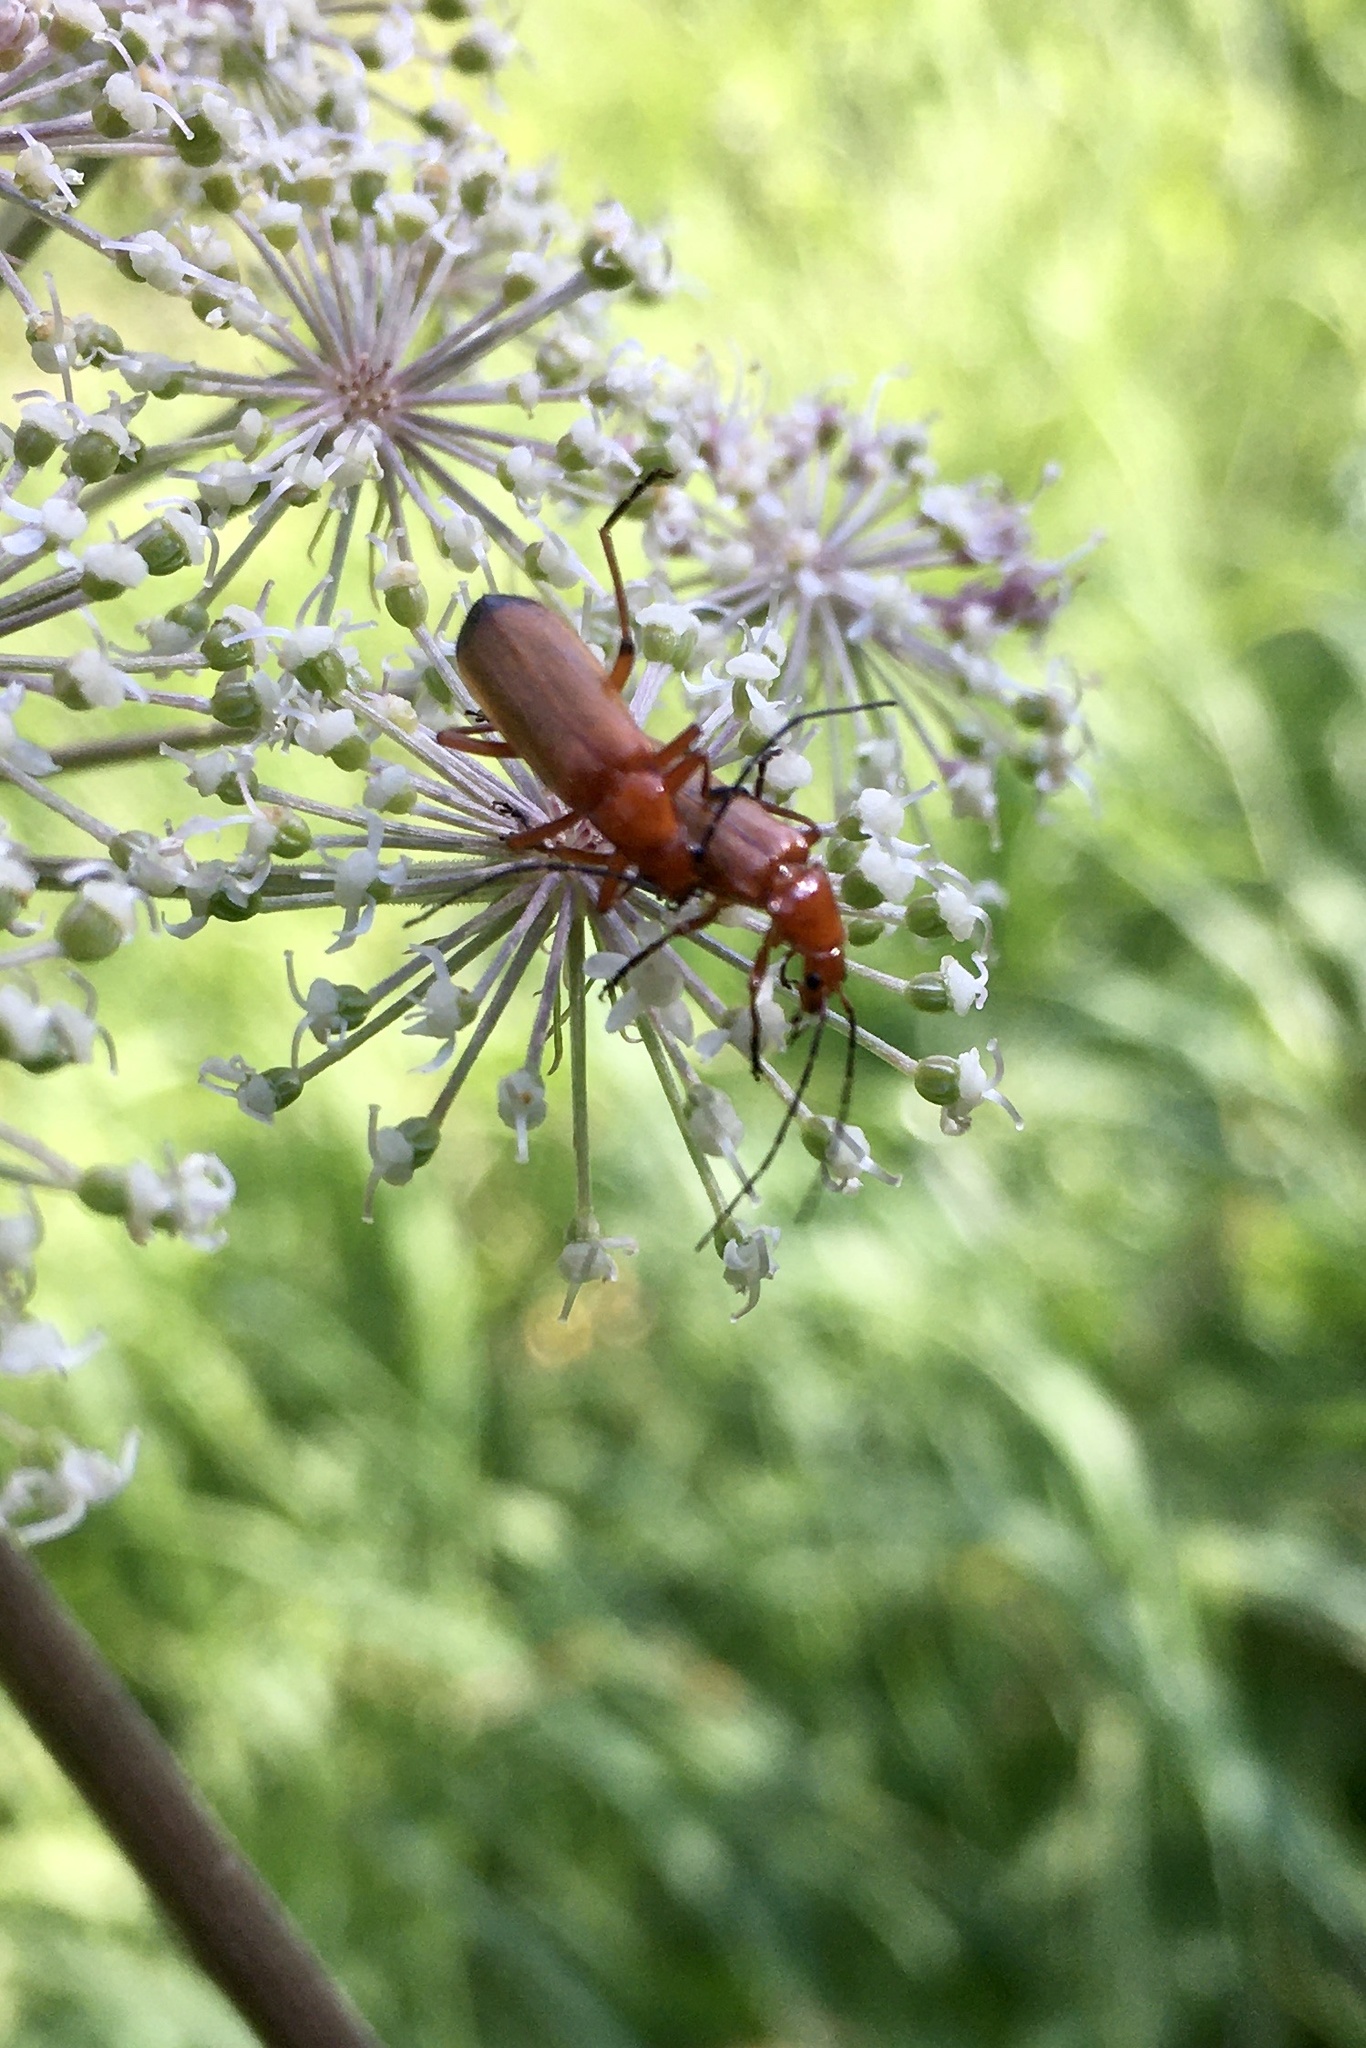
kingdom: Animalia
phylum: Arthropoda
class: Insecta
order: Coleoptera
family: Cantharidae
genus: Rhagonycha
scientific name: Rhagonycha fulva
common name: Common red soldier beetle
